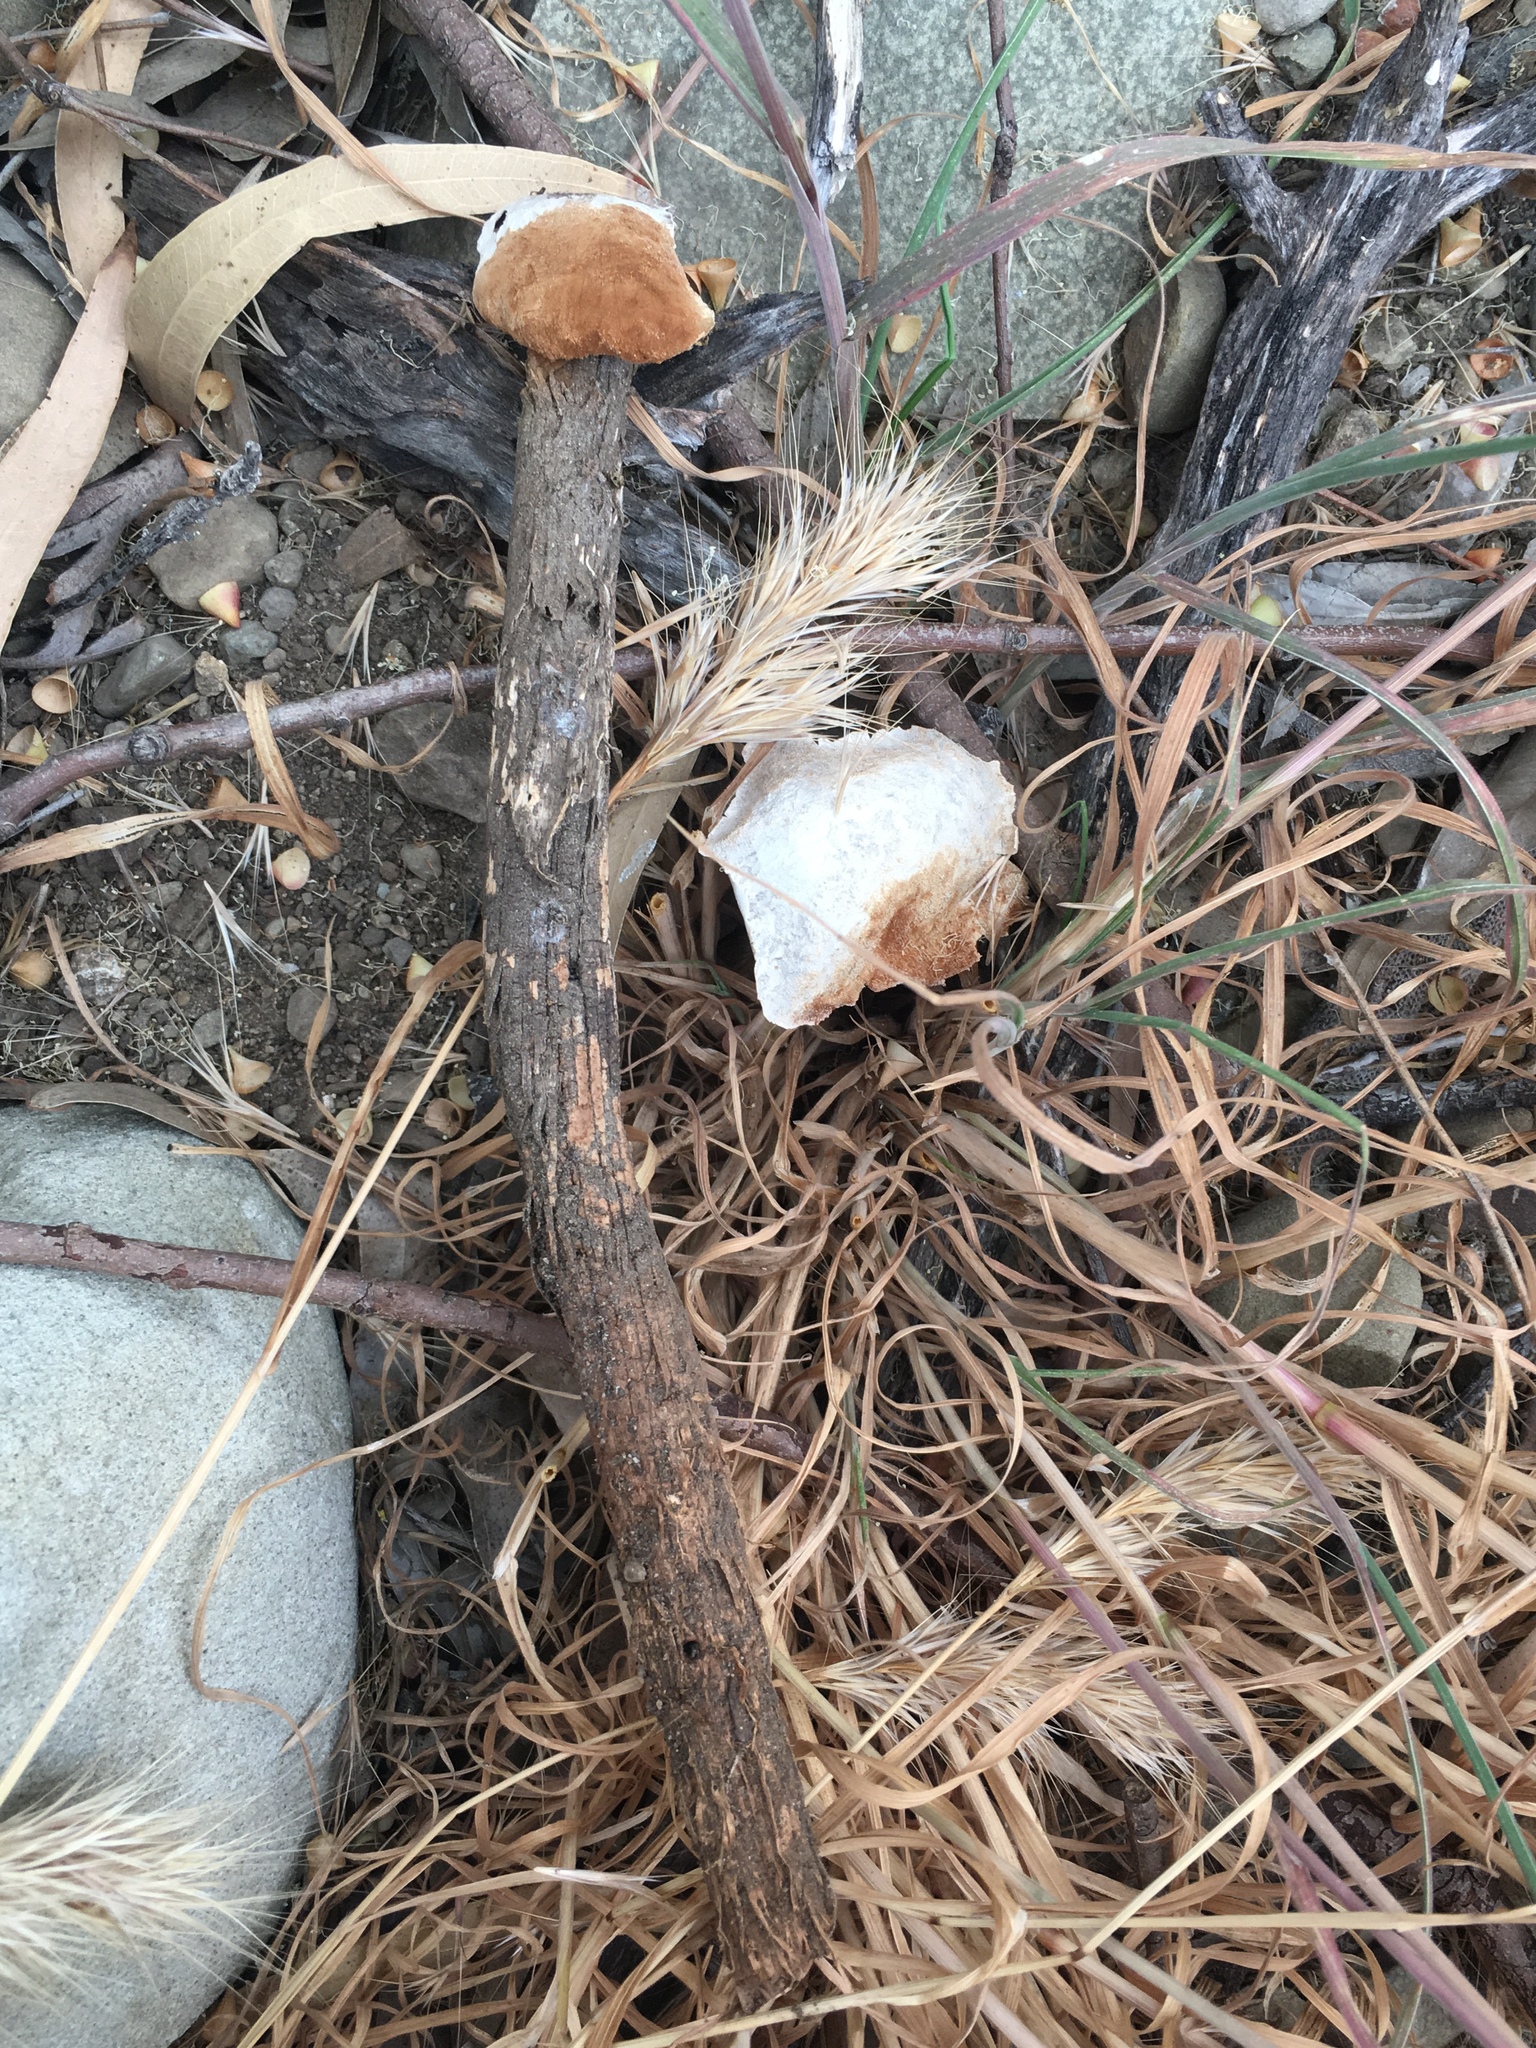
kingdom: Fungi
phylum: Basidiomycota
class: Agaricomycetes
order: Agaricales
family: Agaricaceae
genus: Battarrea
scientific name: Battarrea phalloides
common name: Sandy stiltball
